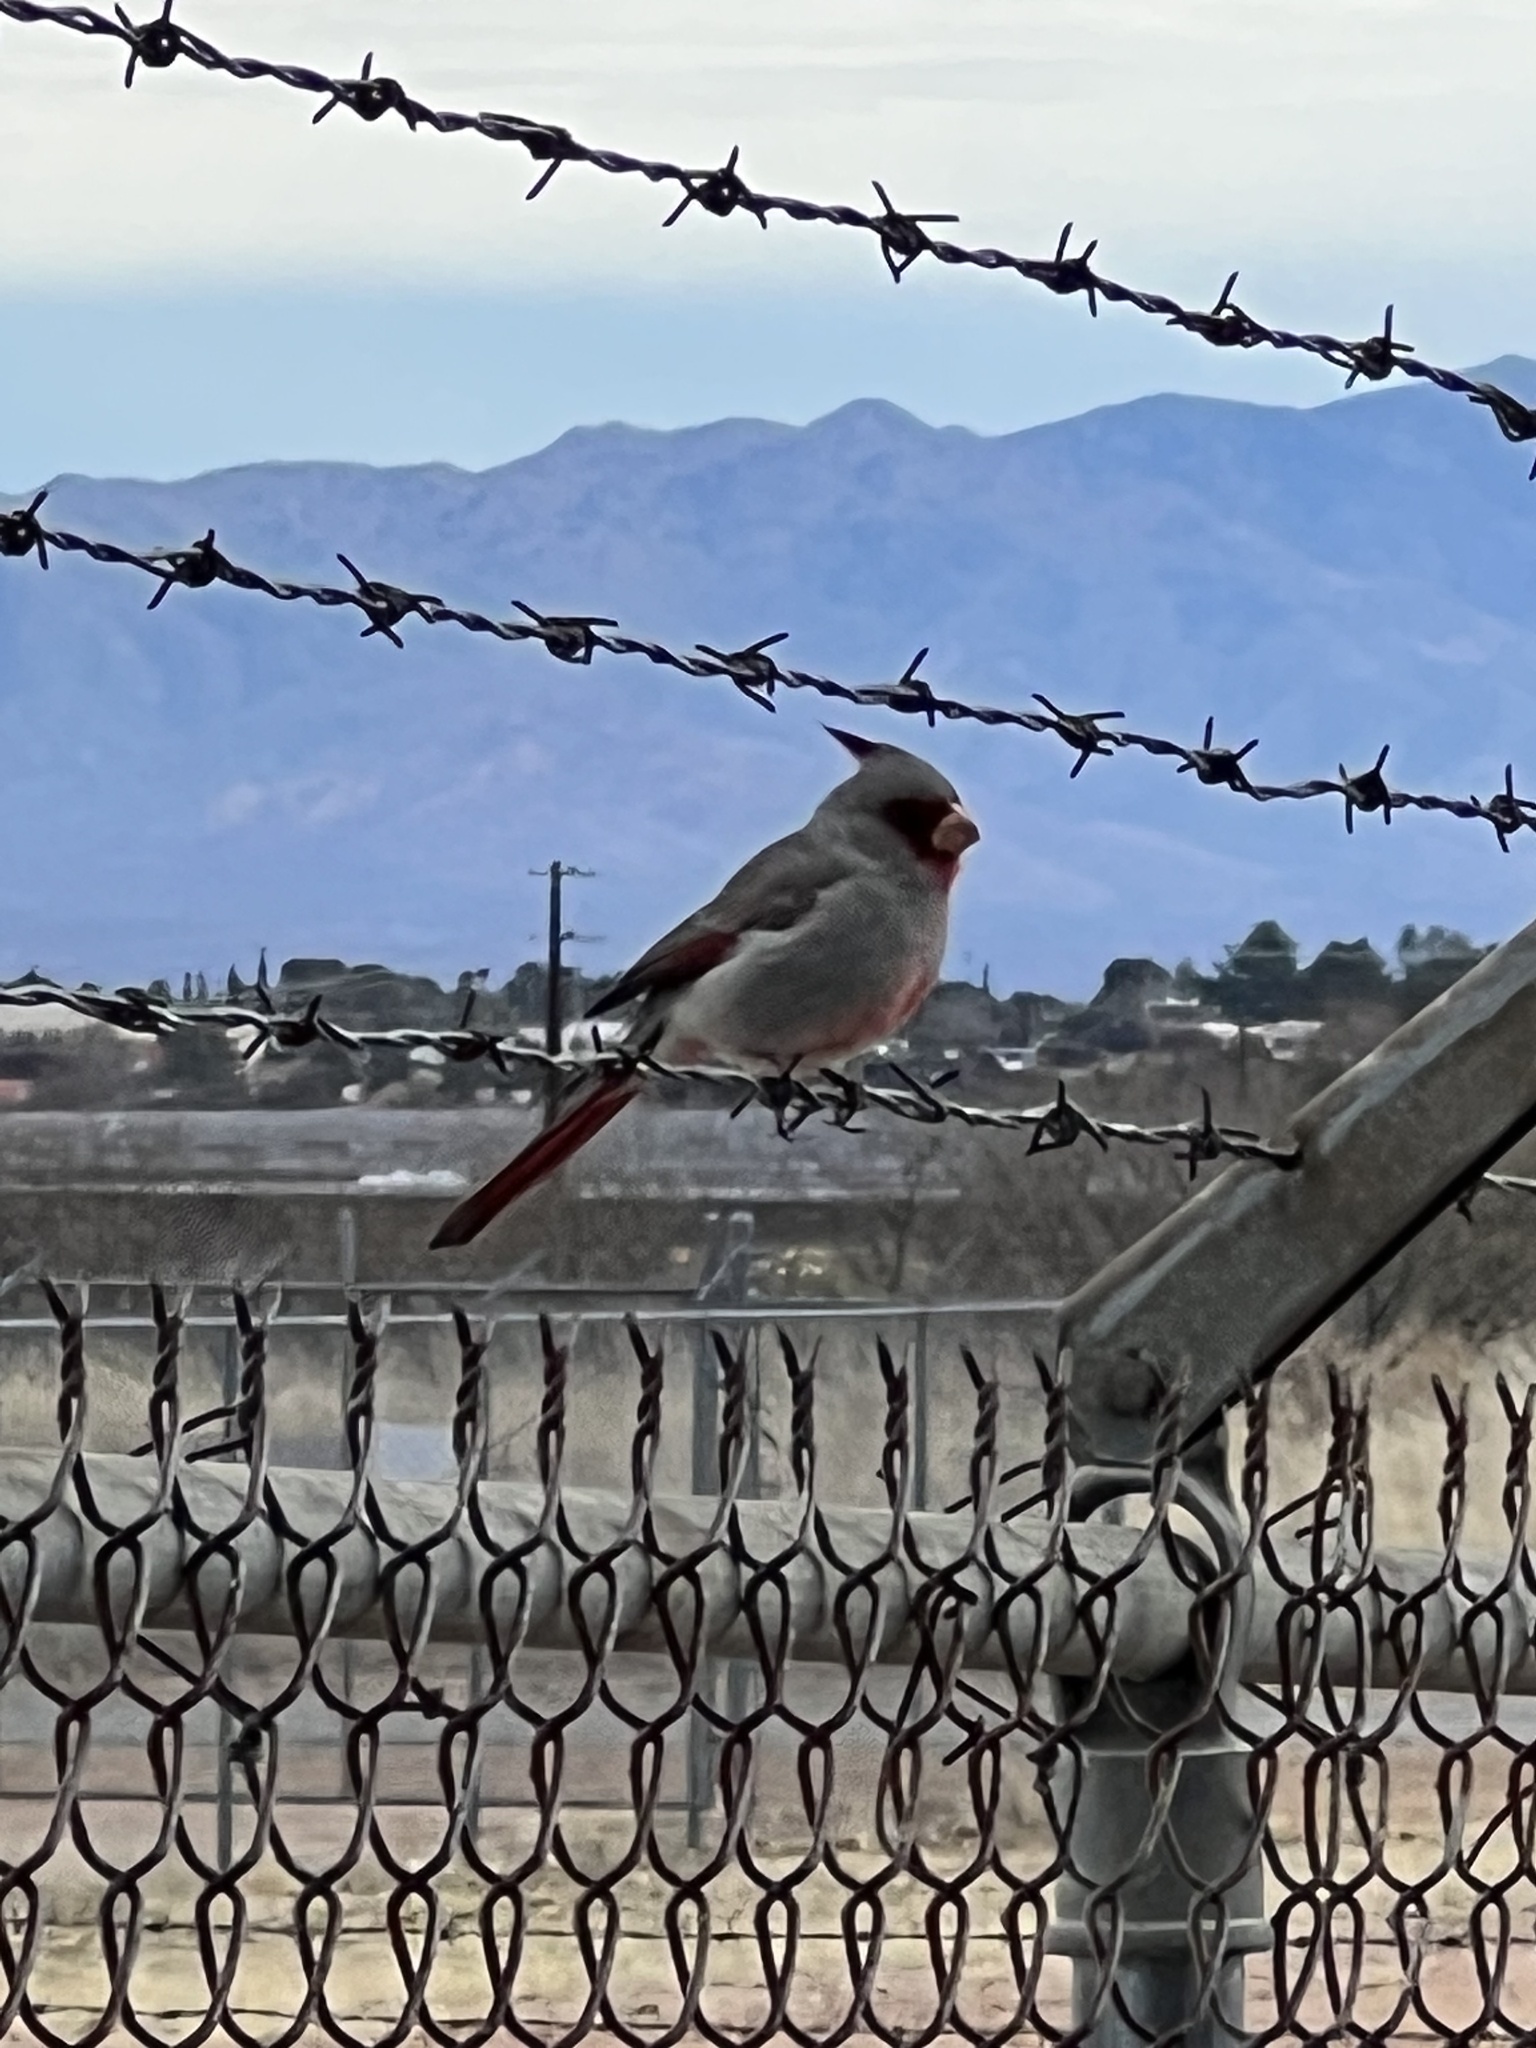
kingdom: Animalia
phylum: Chordata
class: Aves
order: Passeriformes
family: Cardinalidae
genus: Cardinalis
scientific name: Cardinalis sinuatus
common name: Pyrrhuloxia
